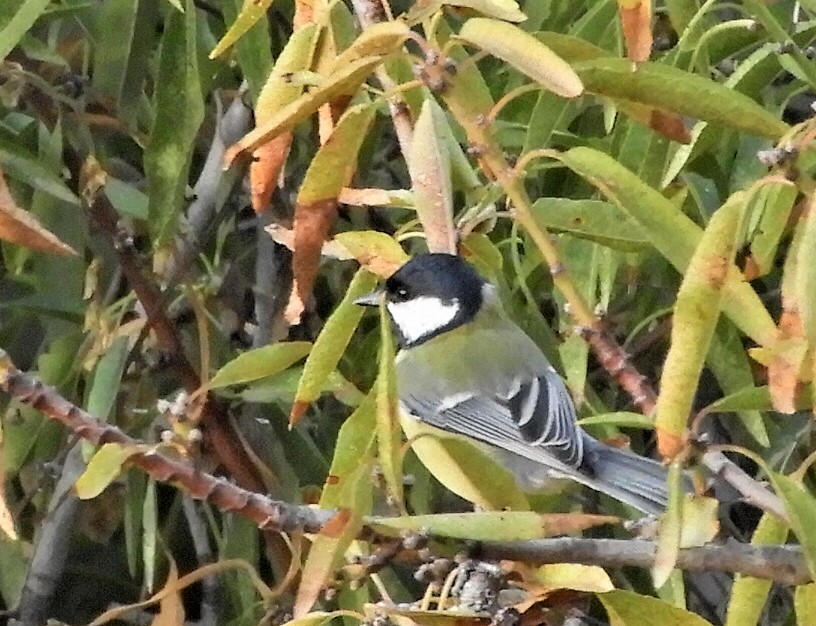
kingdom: Animalia
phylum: Chordata
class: Aves
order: Passeriformes
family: Paridae
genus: Parus
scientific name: Parus major
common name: Great tit
